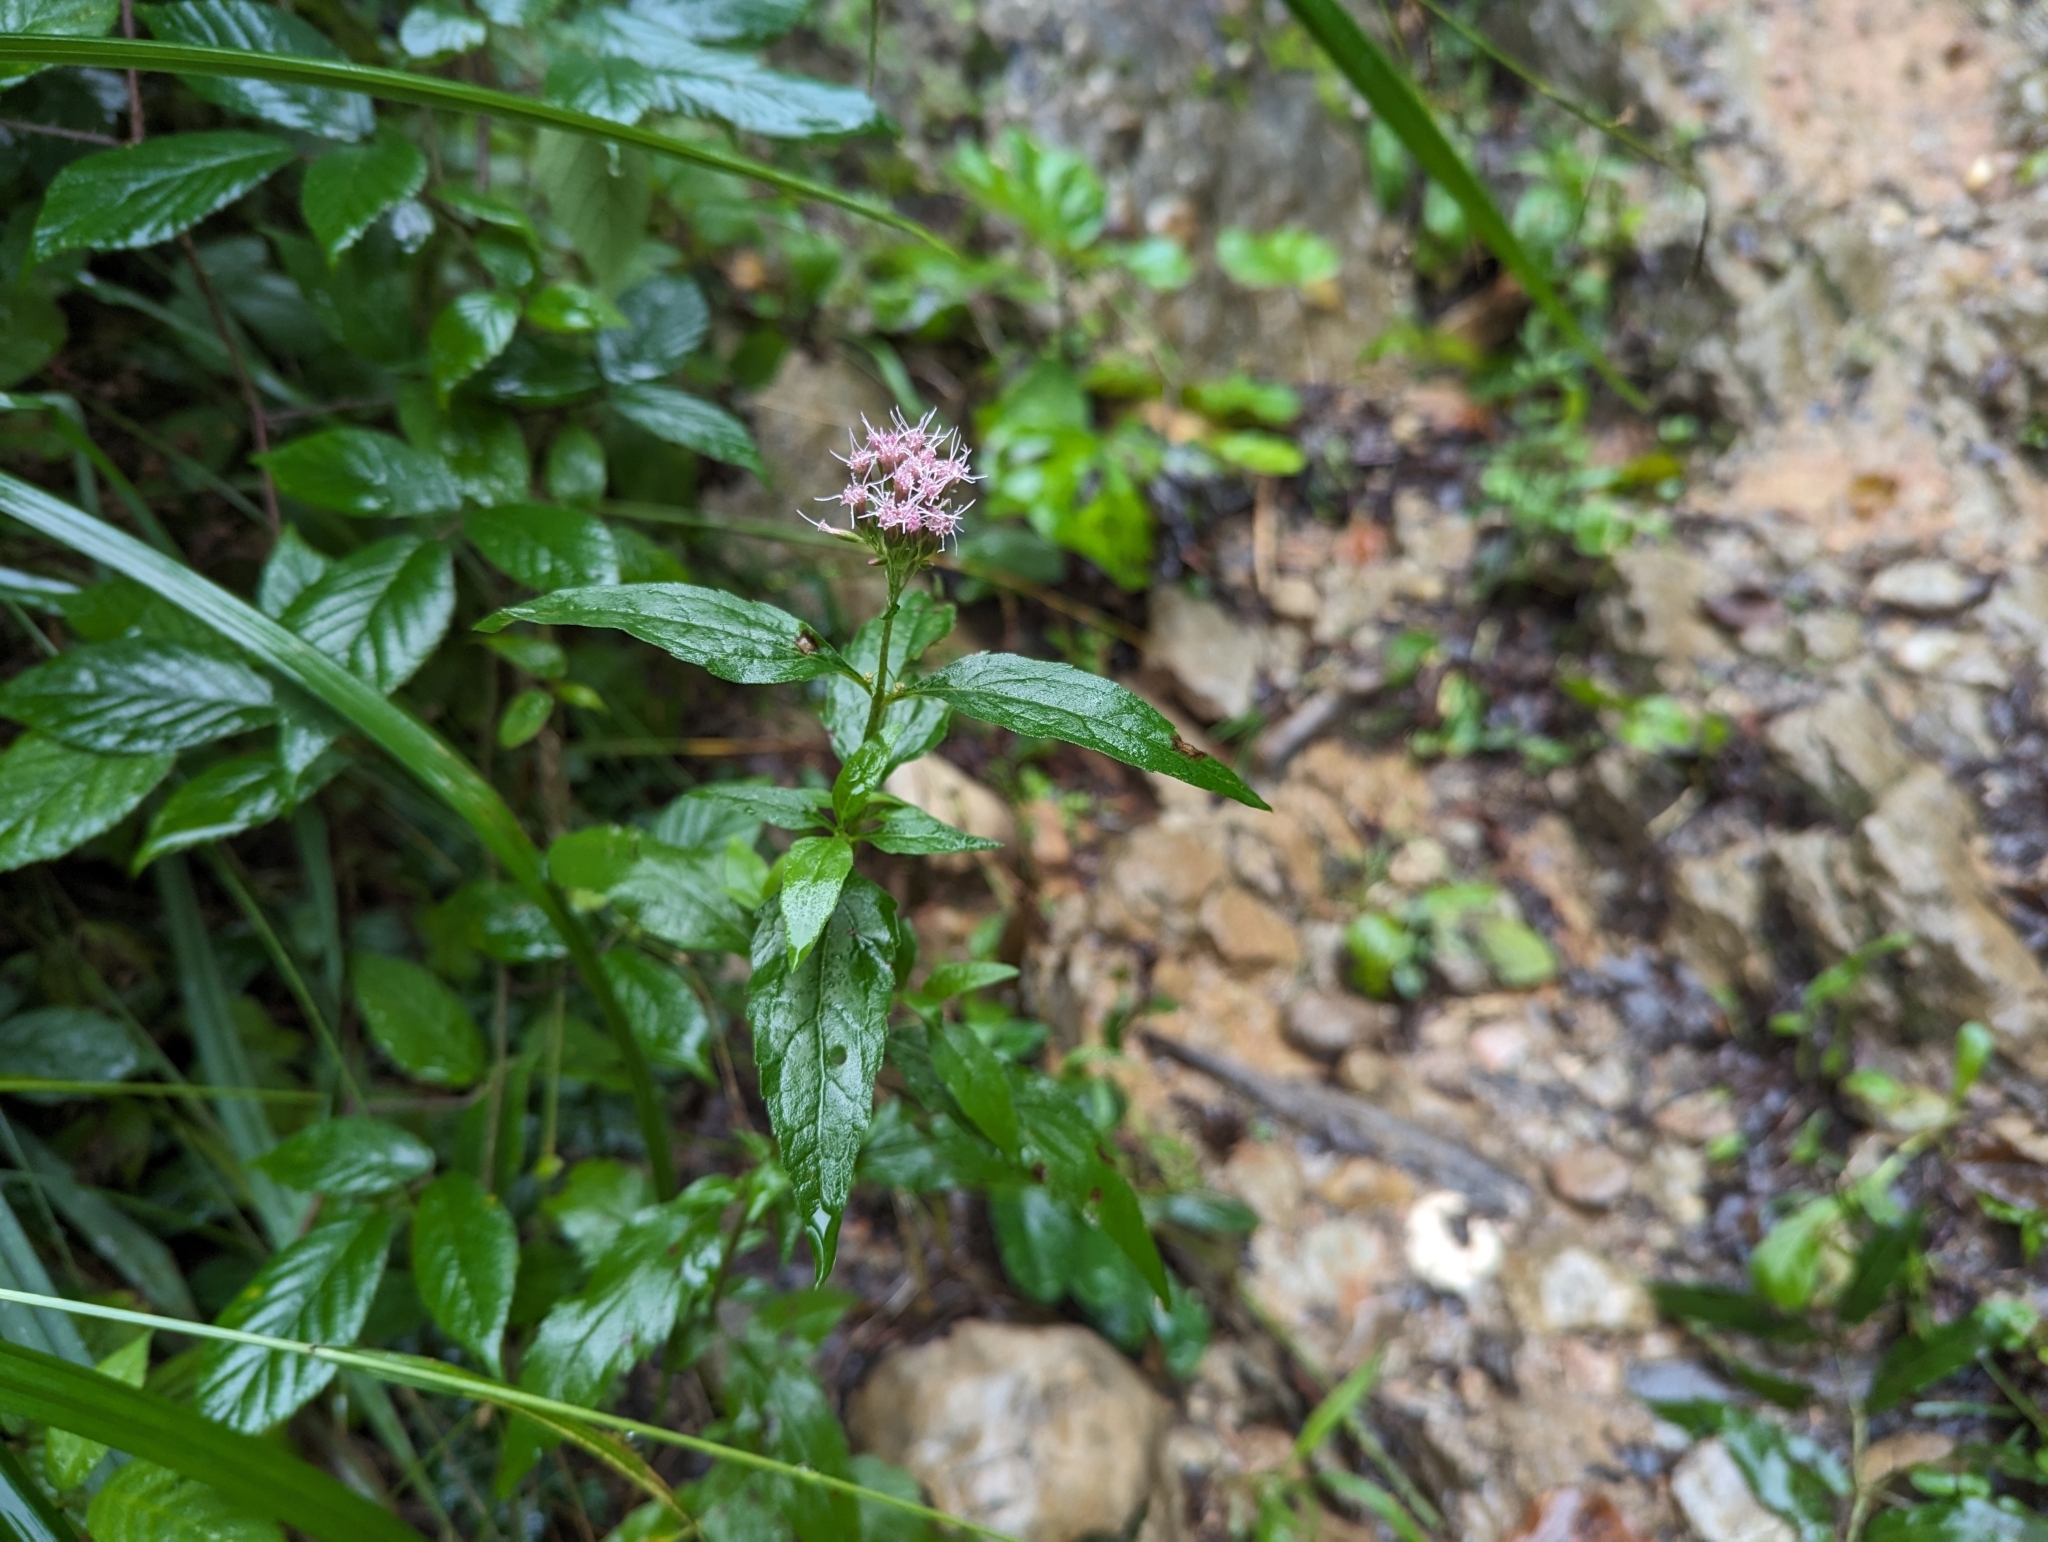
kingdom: Plantae
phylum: Tracheophyta
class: Magnoliopsida
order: Asterales
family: Asteraceae
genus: Eupatorium
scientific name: Eupatorium cannabinum
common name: Hemp-agrimony
